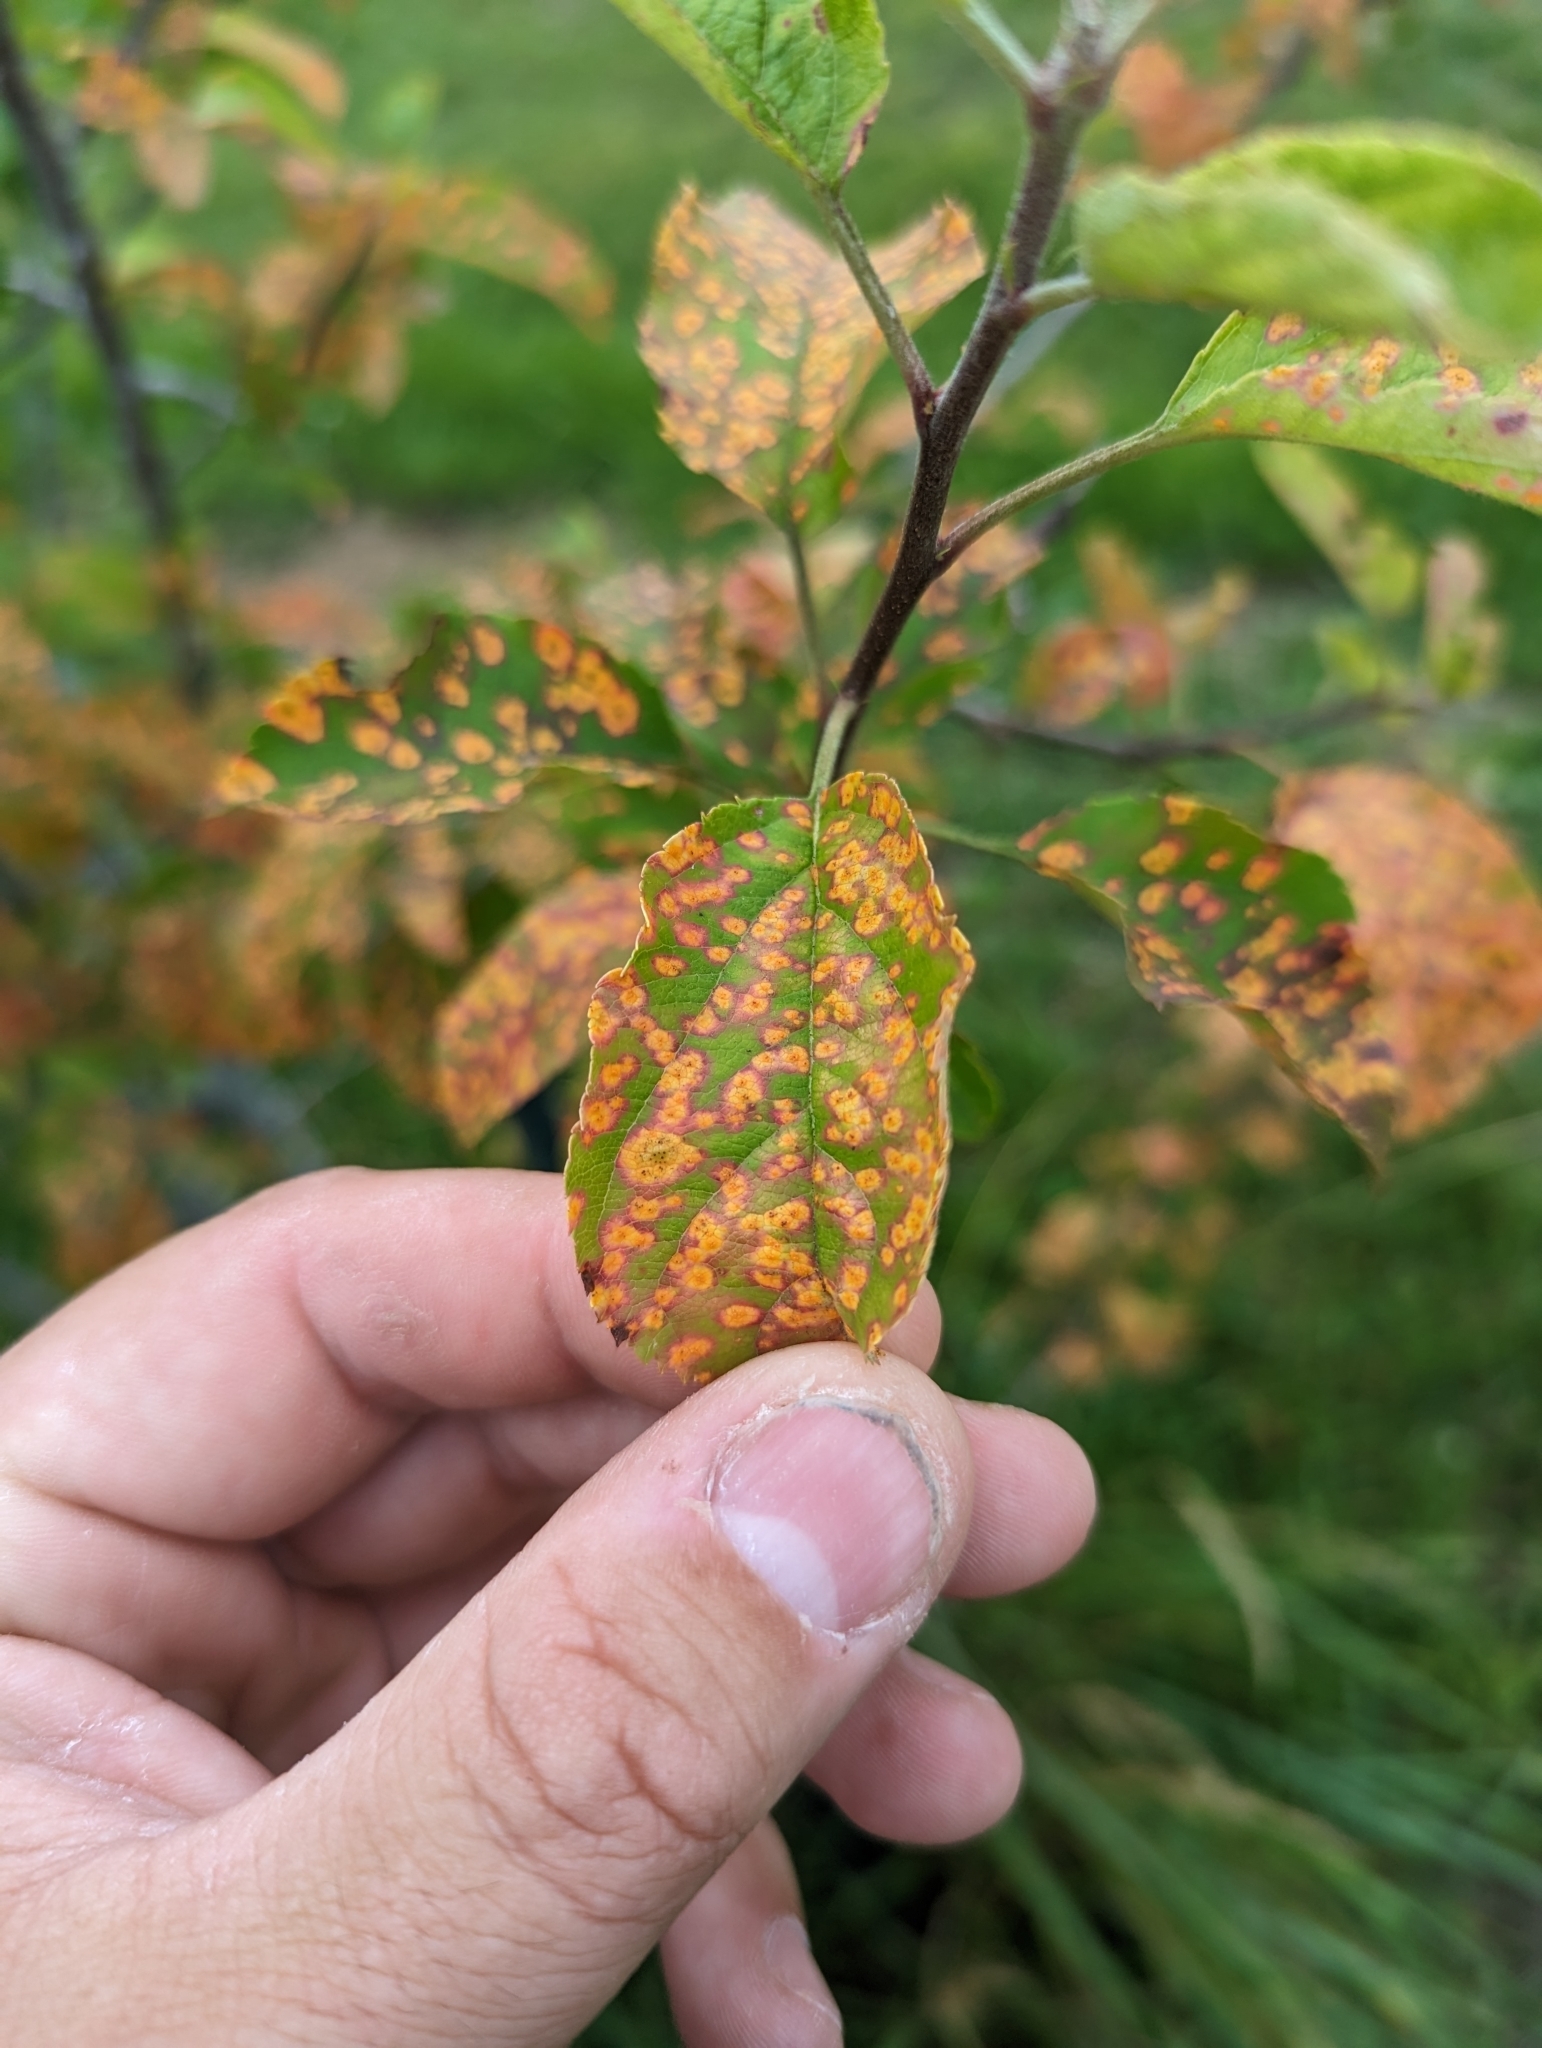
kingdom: Fungi
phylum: Basidiomycota
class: Pucciniomycetes
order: Pucciniales
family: Gymnosporangiaceae
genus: Gymnosporangium
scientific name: Gymnosporangium globosum
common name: Juniper-hawthorn rust
